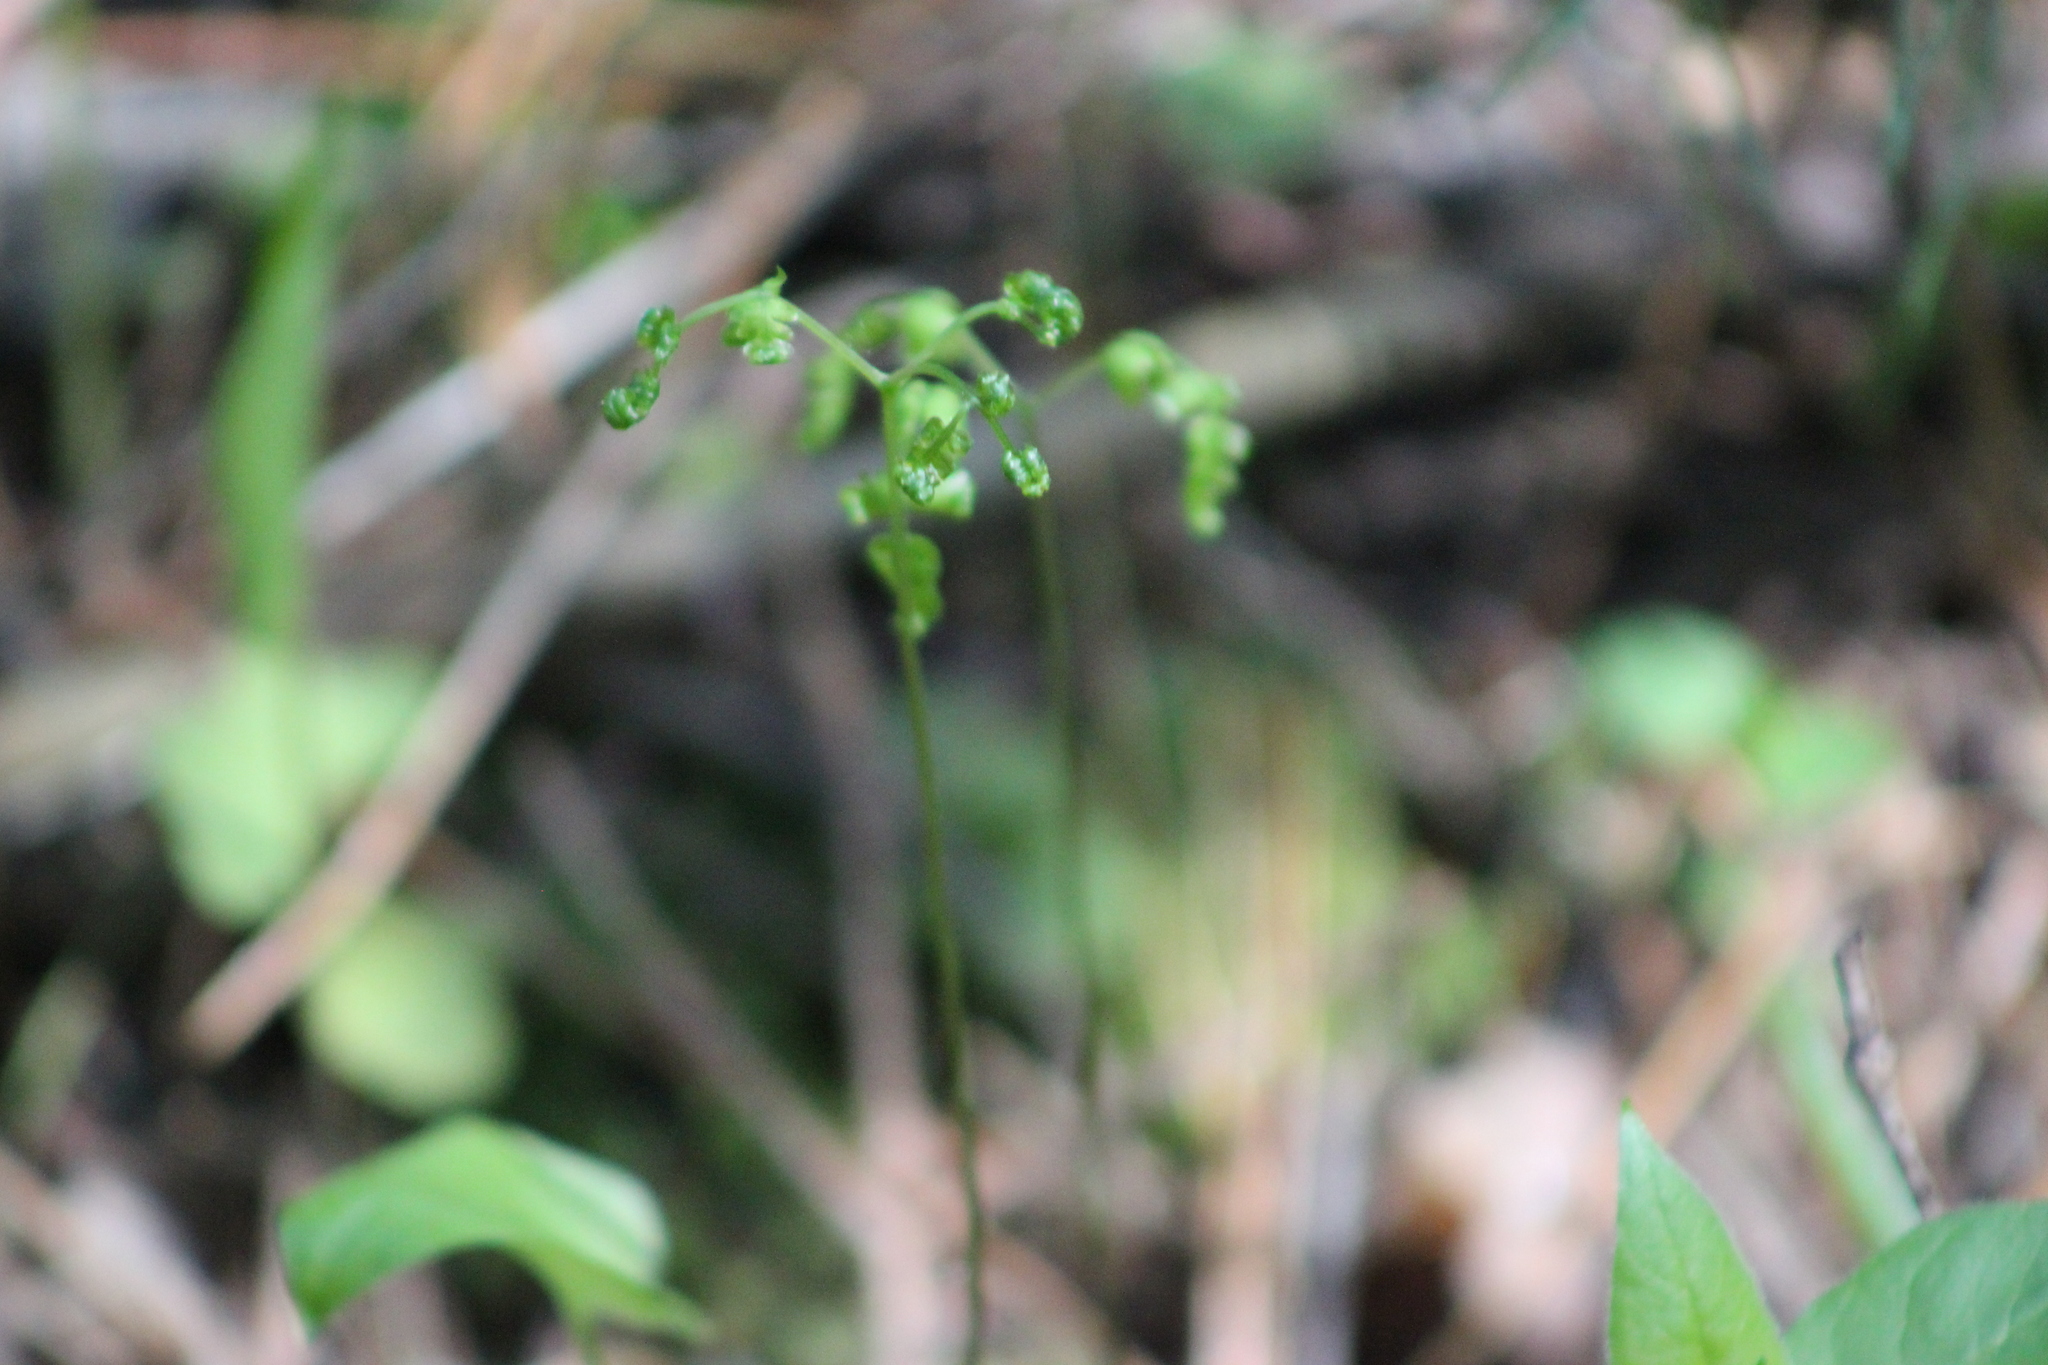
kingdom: Plantae
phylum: Tracheophyta
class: Polypodiopsida
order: Polypodiales
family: Cystopteridaceae
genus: Gymnocarpium
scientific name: Gymnocarpium dryopteris
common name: Oak fern
